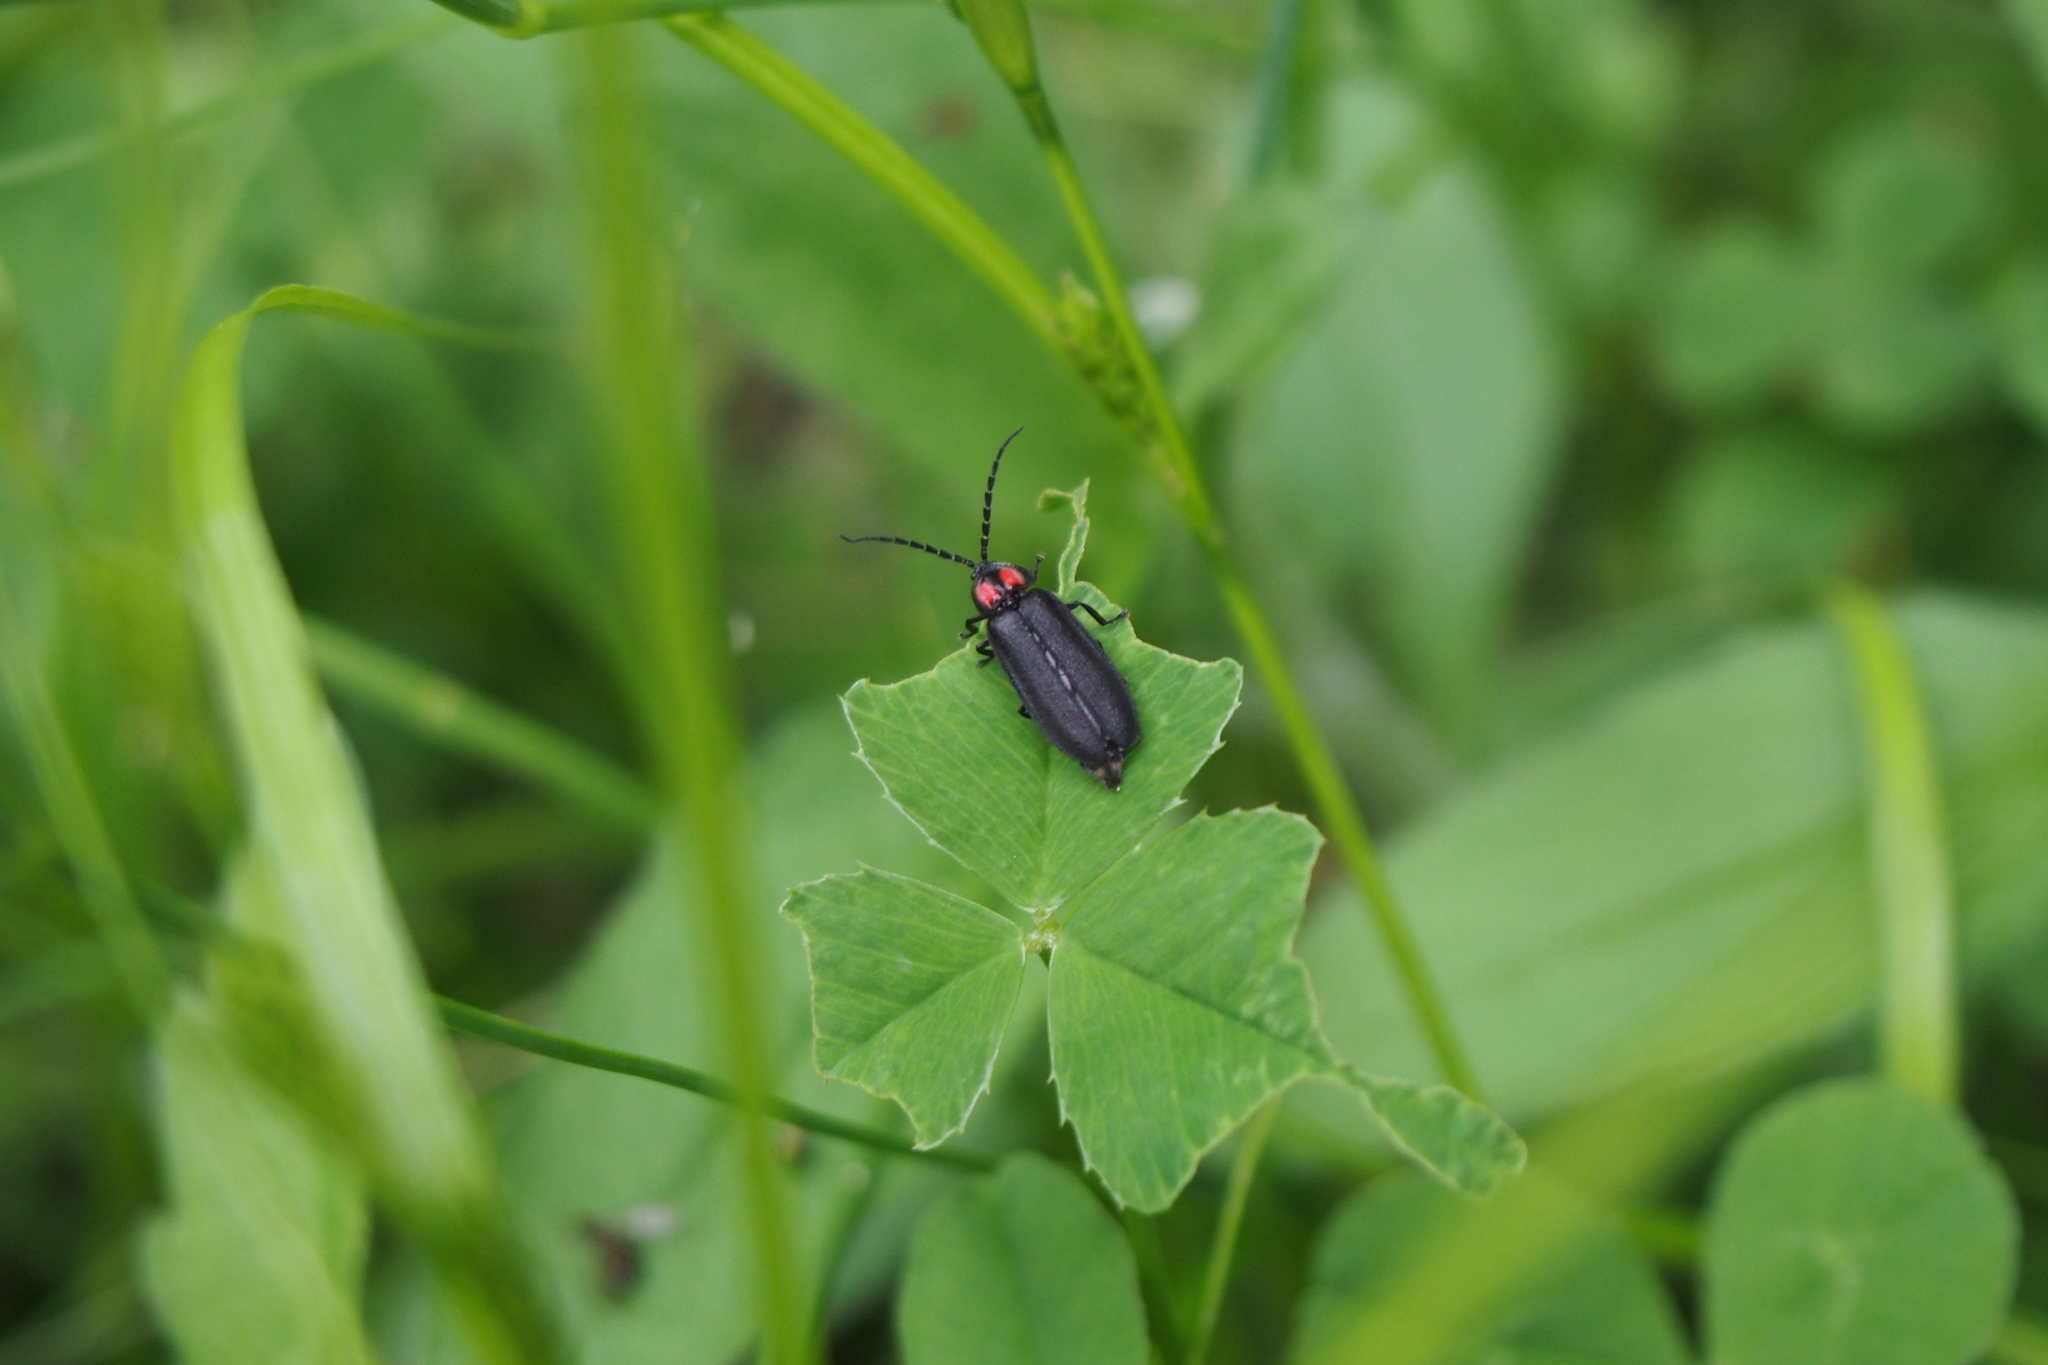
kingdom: Animalia
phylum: Arthropoda
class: Insecta
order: Coleoptera
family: Lampyridae
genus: Lucidina
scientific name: Lucidina biplagiata
